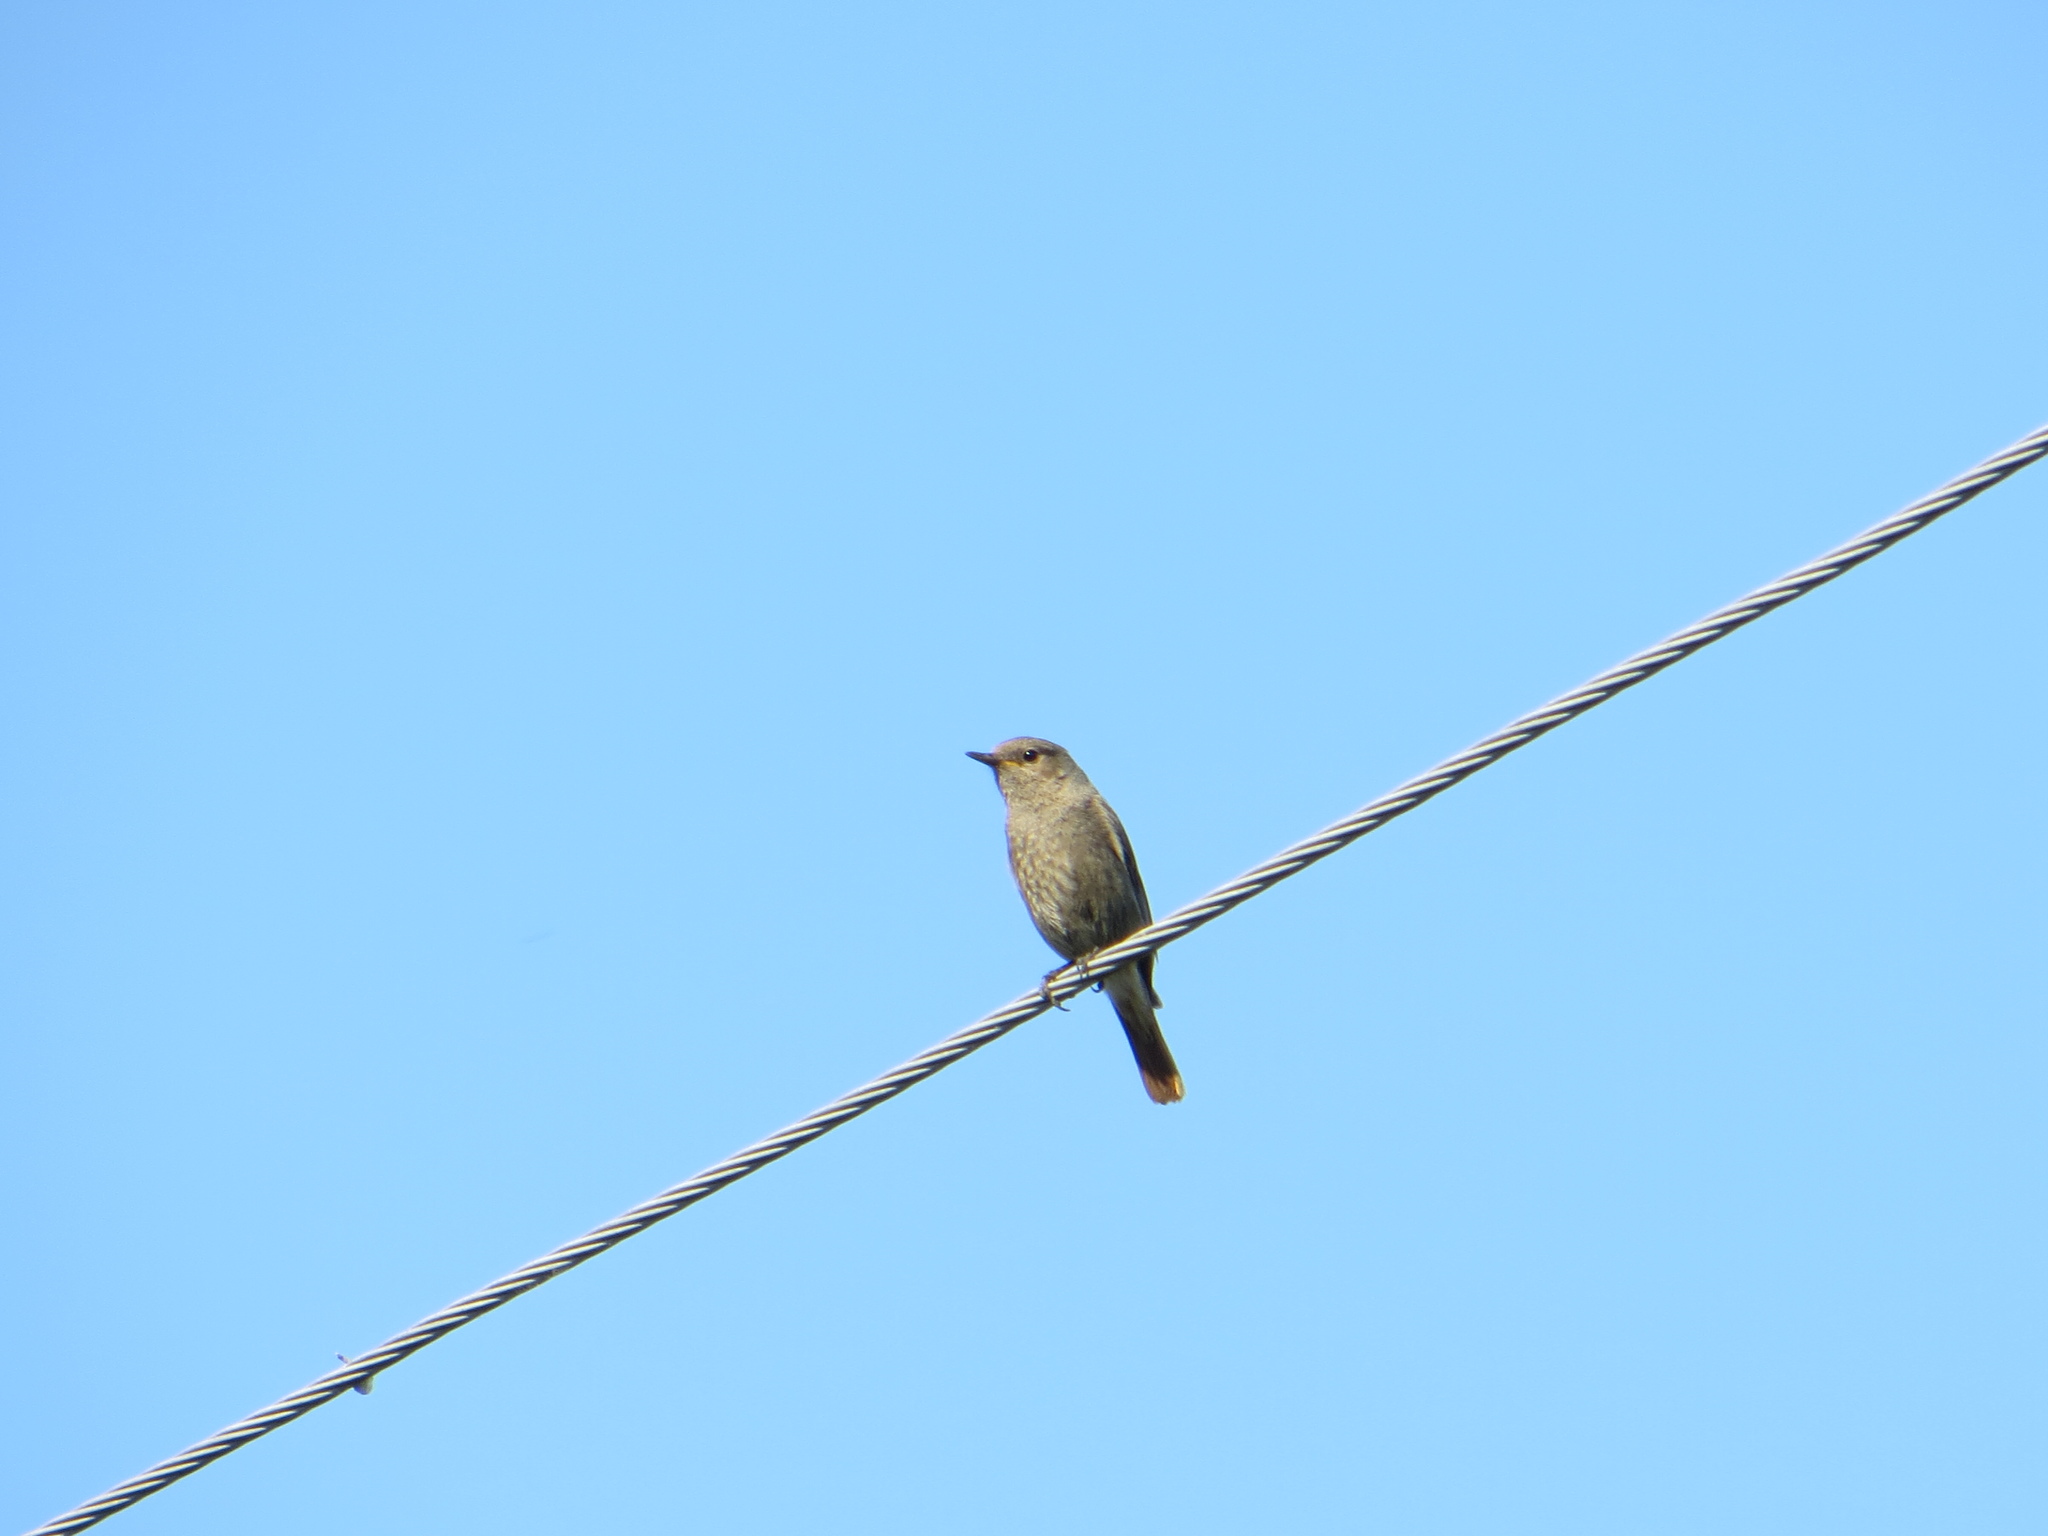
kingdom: Animalia
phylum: Chordata
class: Aves
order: Passeriformes
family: Muscicapidae
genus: Phoenicurus
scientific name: Phoenicurus ochruros
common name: Black redstart
